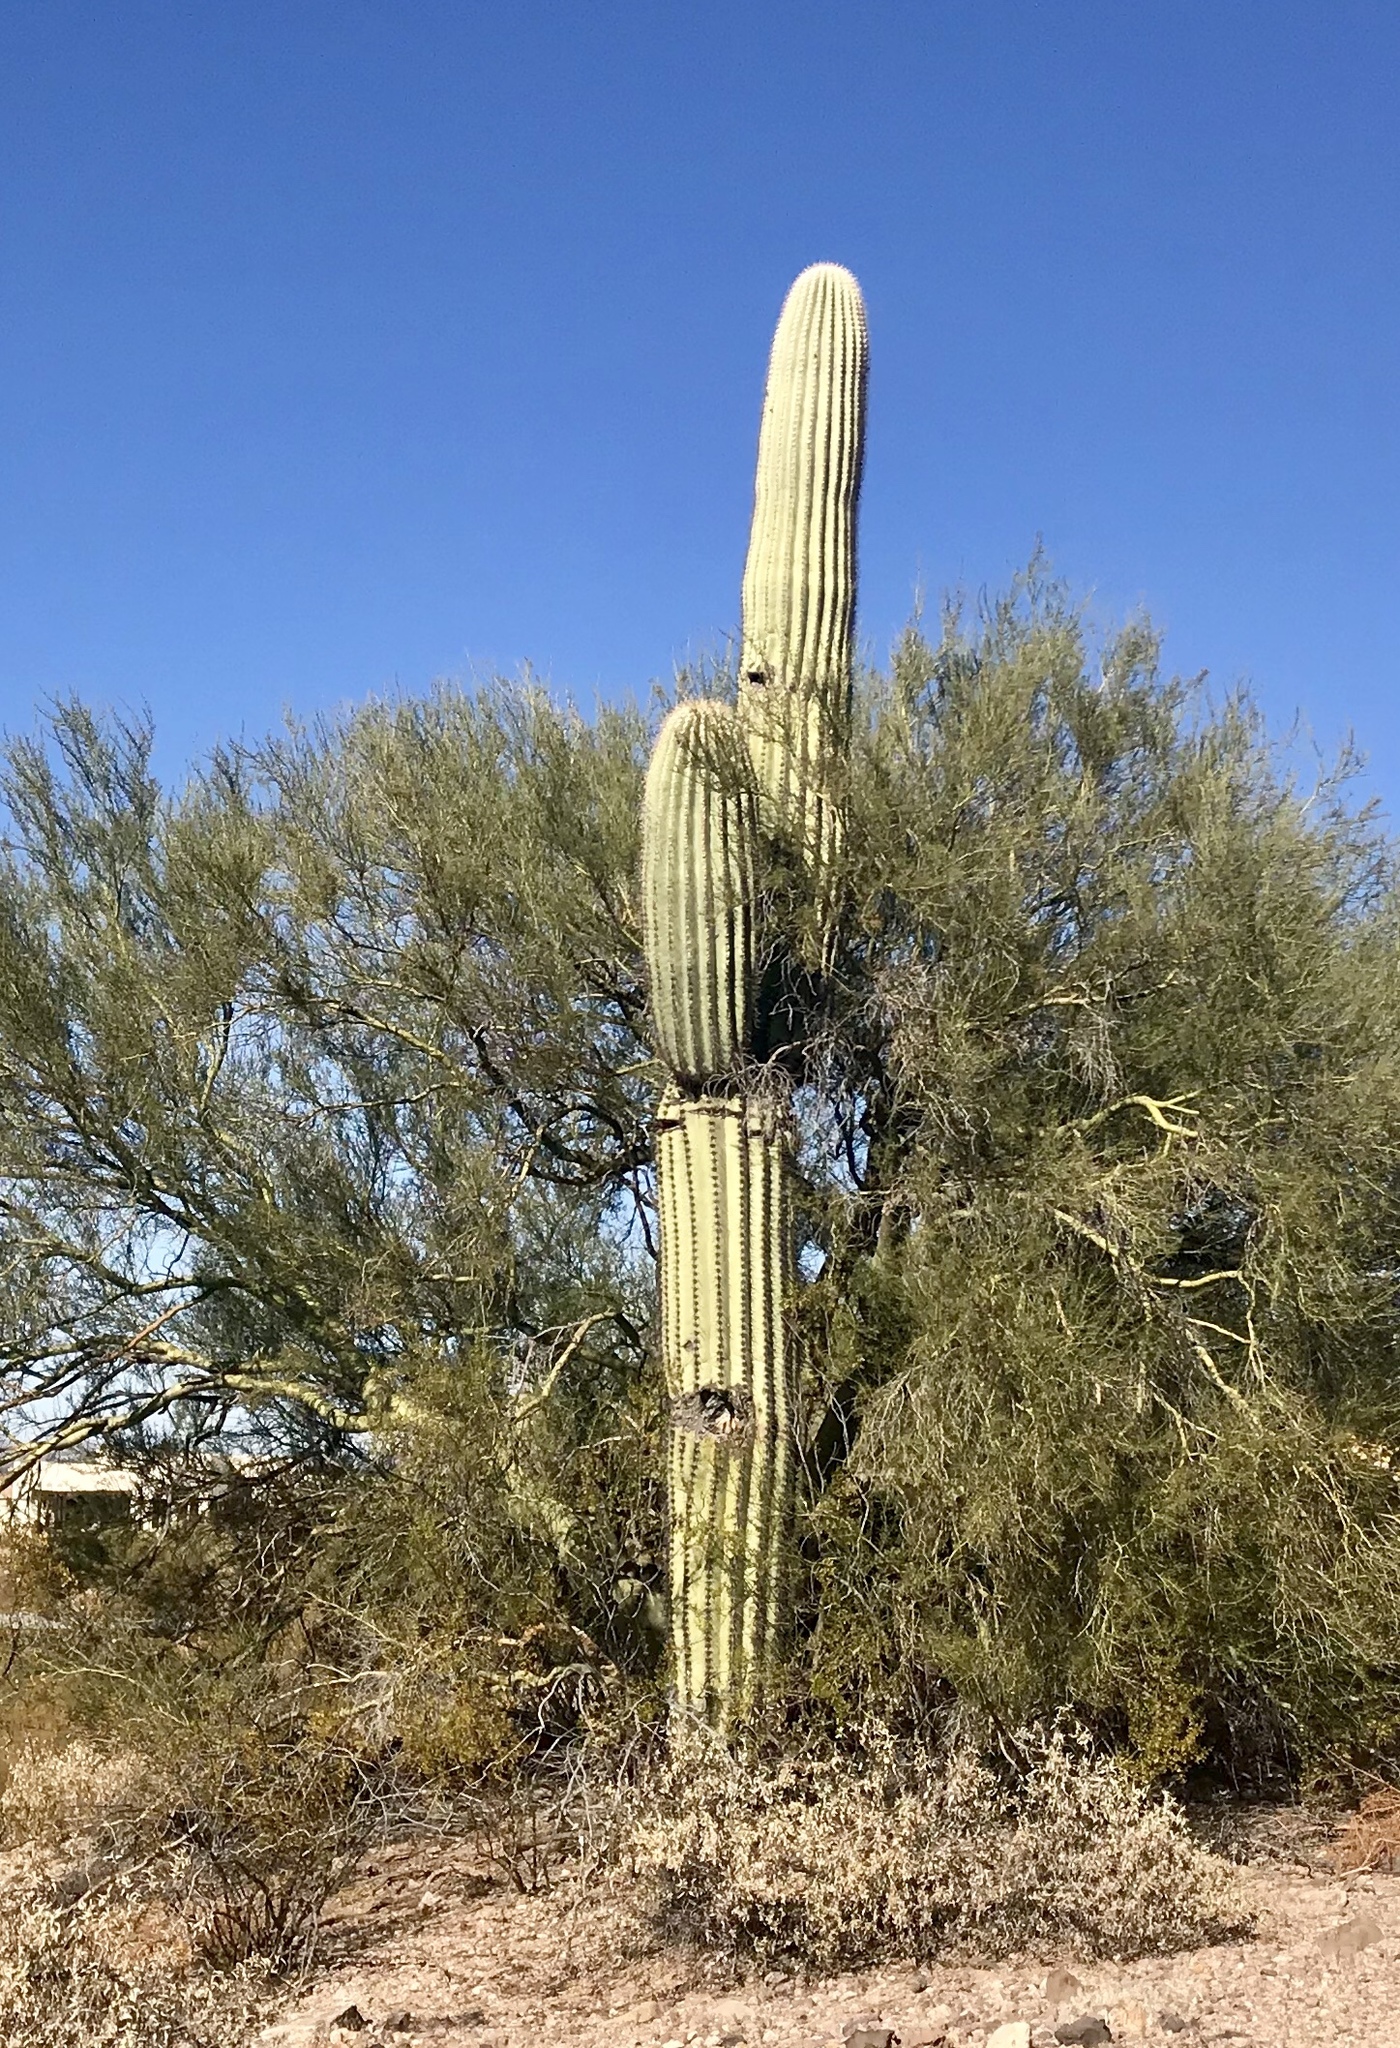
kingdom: Plantae
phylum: Tracheophyta
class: Magnoliopsida
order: Caryophyllales
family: Cactaceae
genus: Carnegiea
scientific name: Carnegiea gigantea
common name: Saguaro
